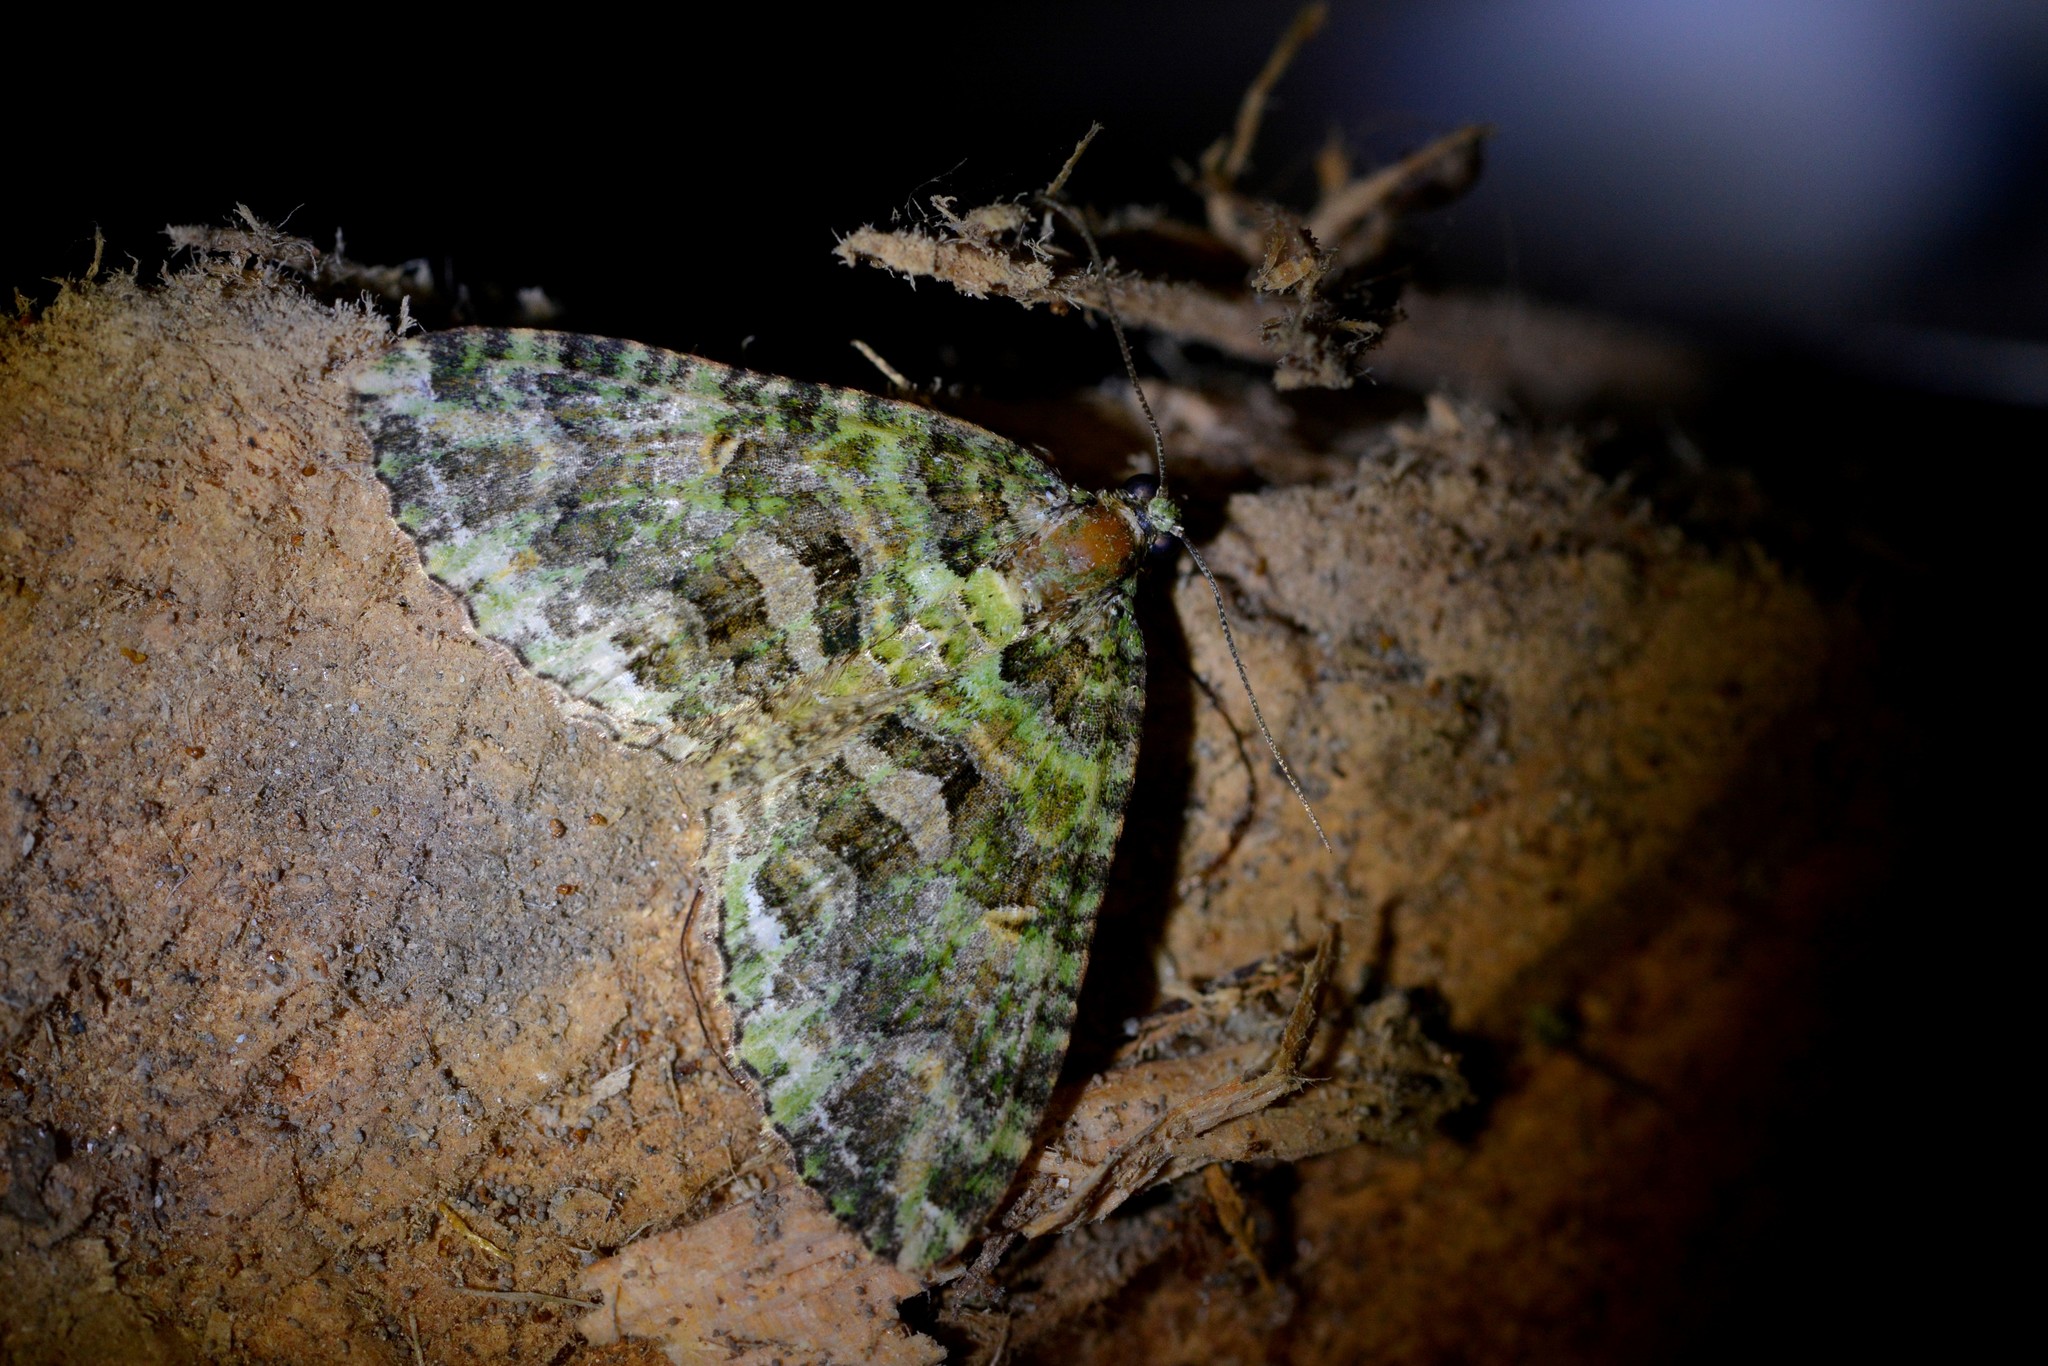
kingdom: Animalia
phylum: Arthropoda
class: Insecta
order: Lepidoptera
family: Geometridae
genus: Austrocidaria
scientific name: Austrocidaria similata
